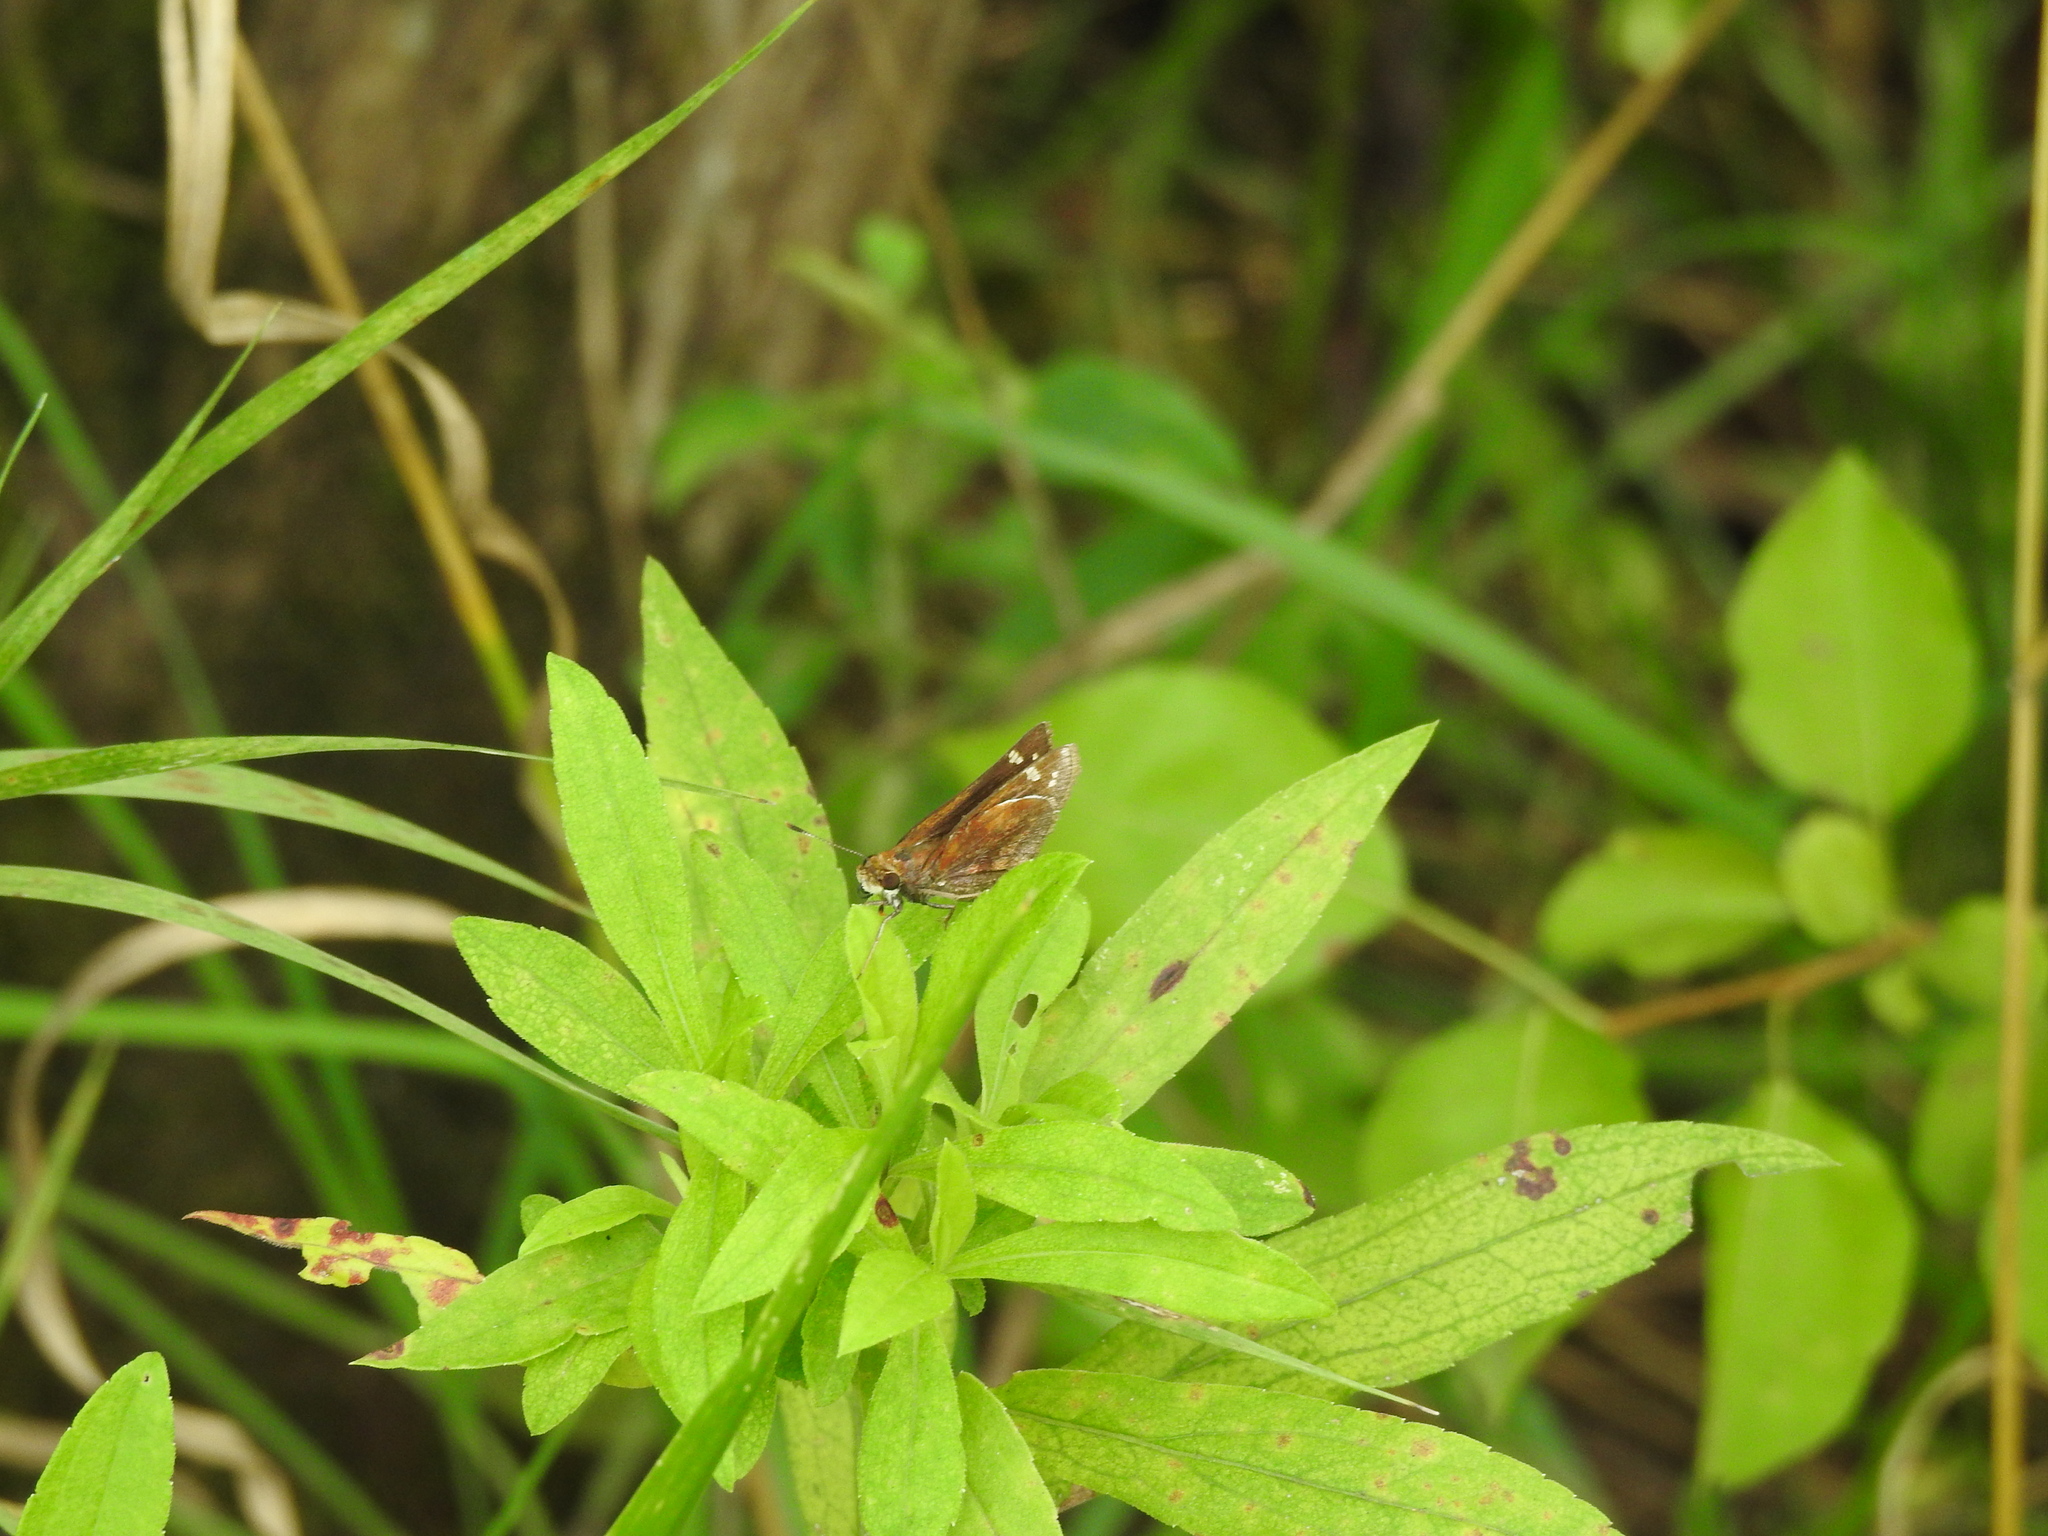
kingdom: Animalia
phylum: Arthropoda
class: Insecta
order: Lepidoptera
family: Hesperiidae
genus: Lon
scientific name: Lon zabulon
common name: Zabulon skipper
